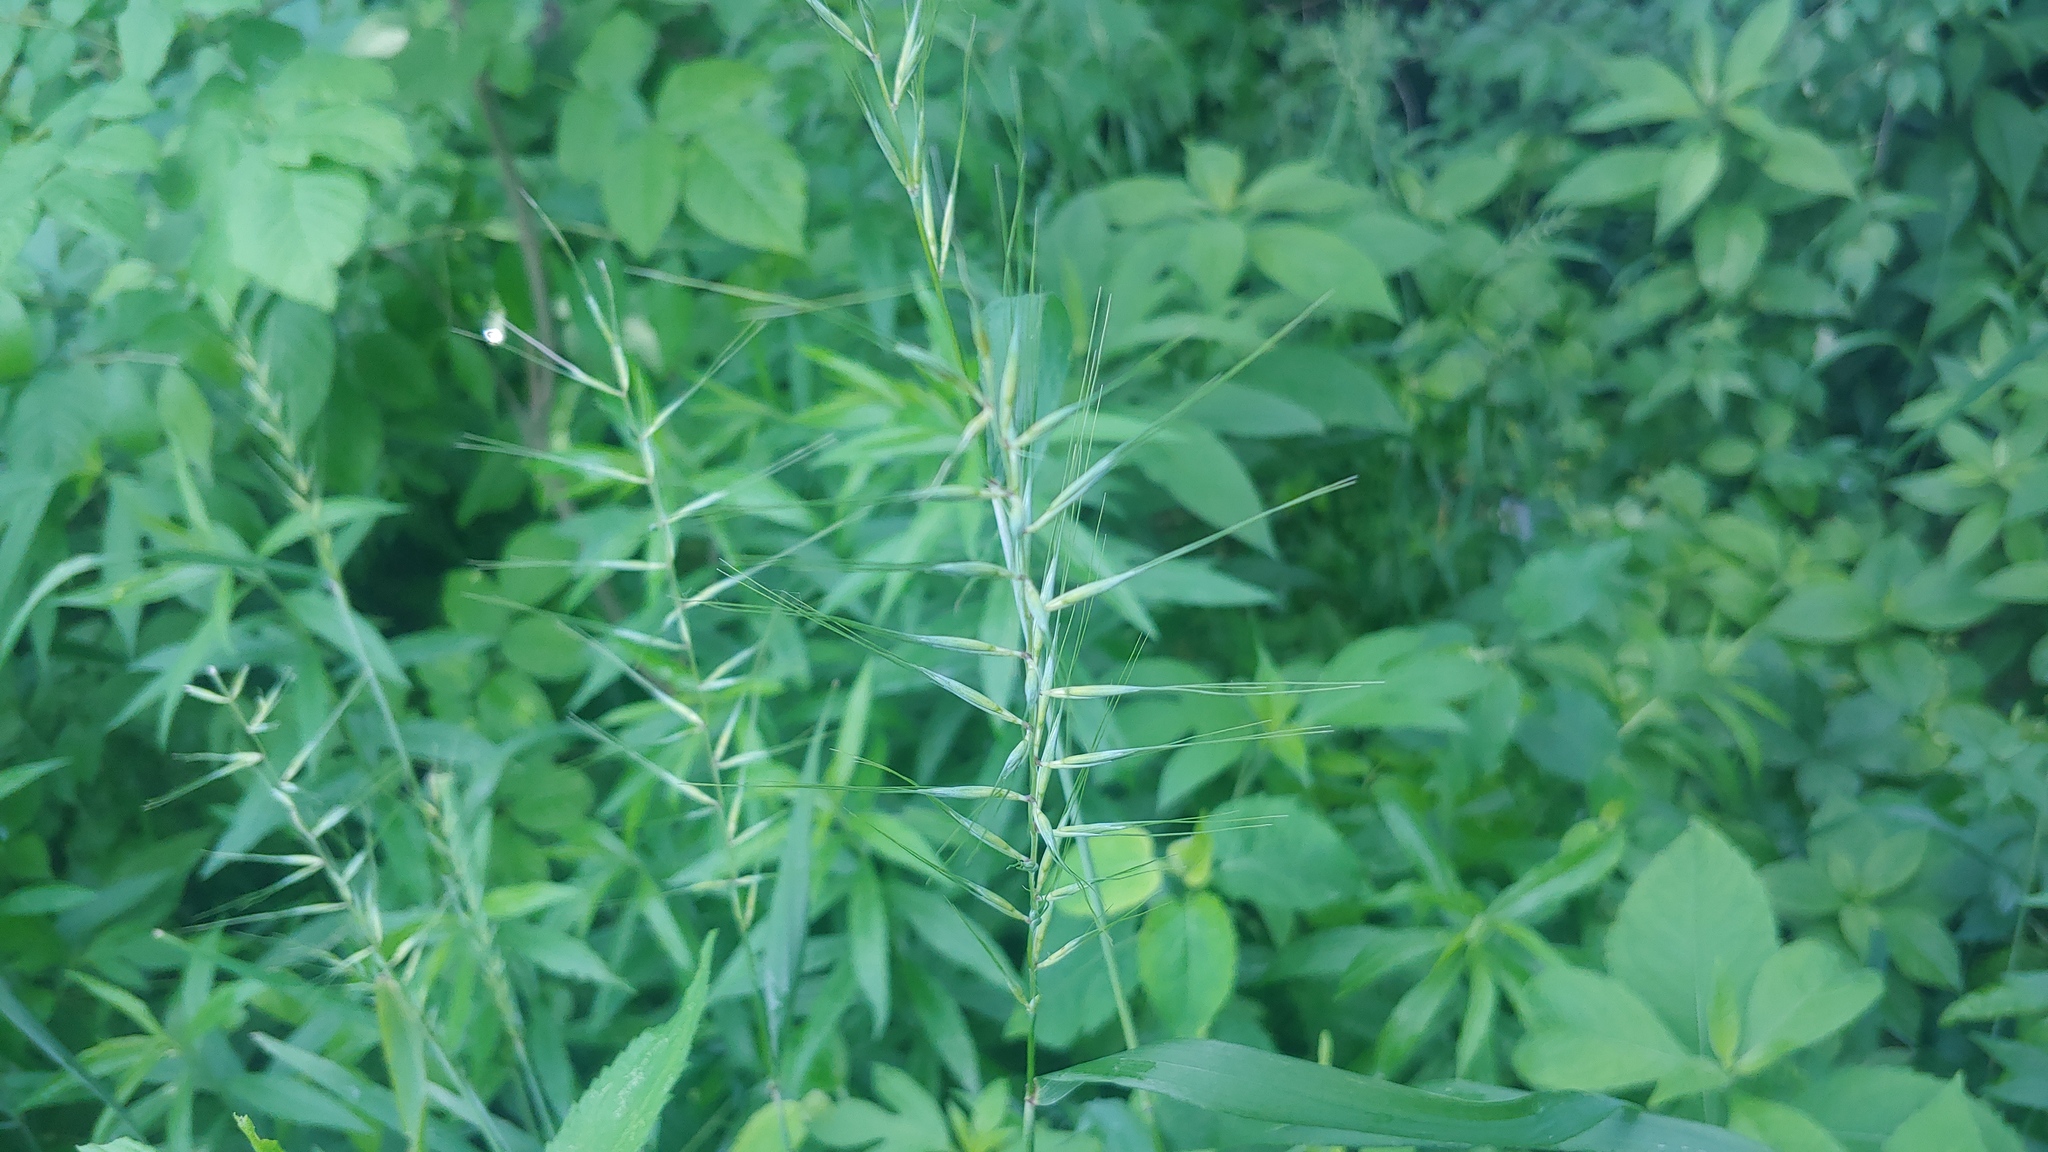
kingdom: Plantae
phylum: Tracheophyta
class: Liliopsida
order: Poales
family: Poaceae
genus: Elymus
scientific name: Elymus hystrix
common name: Bottlebrush grass
